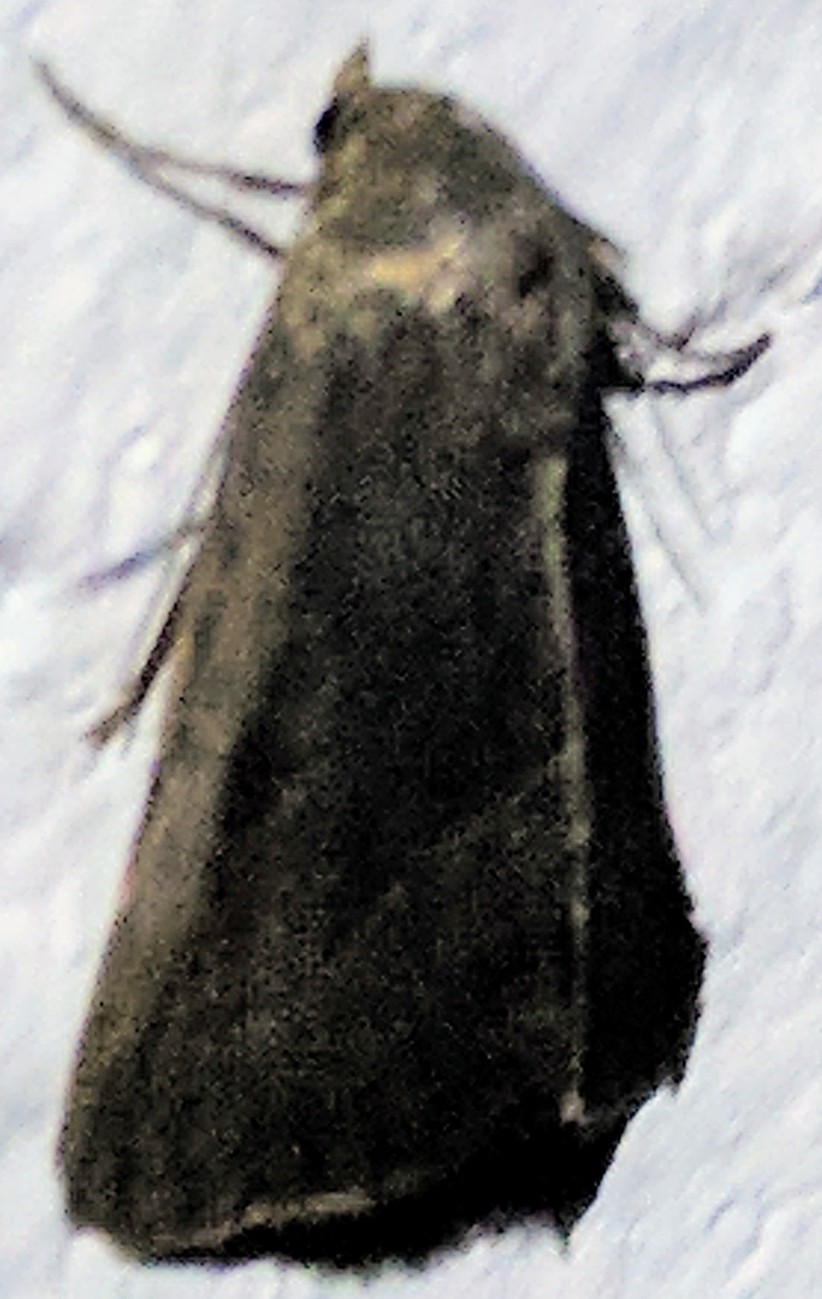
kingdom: Animalia
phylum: Arthropoda
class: Insecta
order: Lepidoptera
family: Noctuidae
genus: Galgula
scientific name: Galgula partita
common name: Wedgeling
